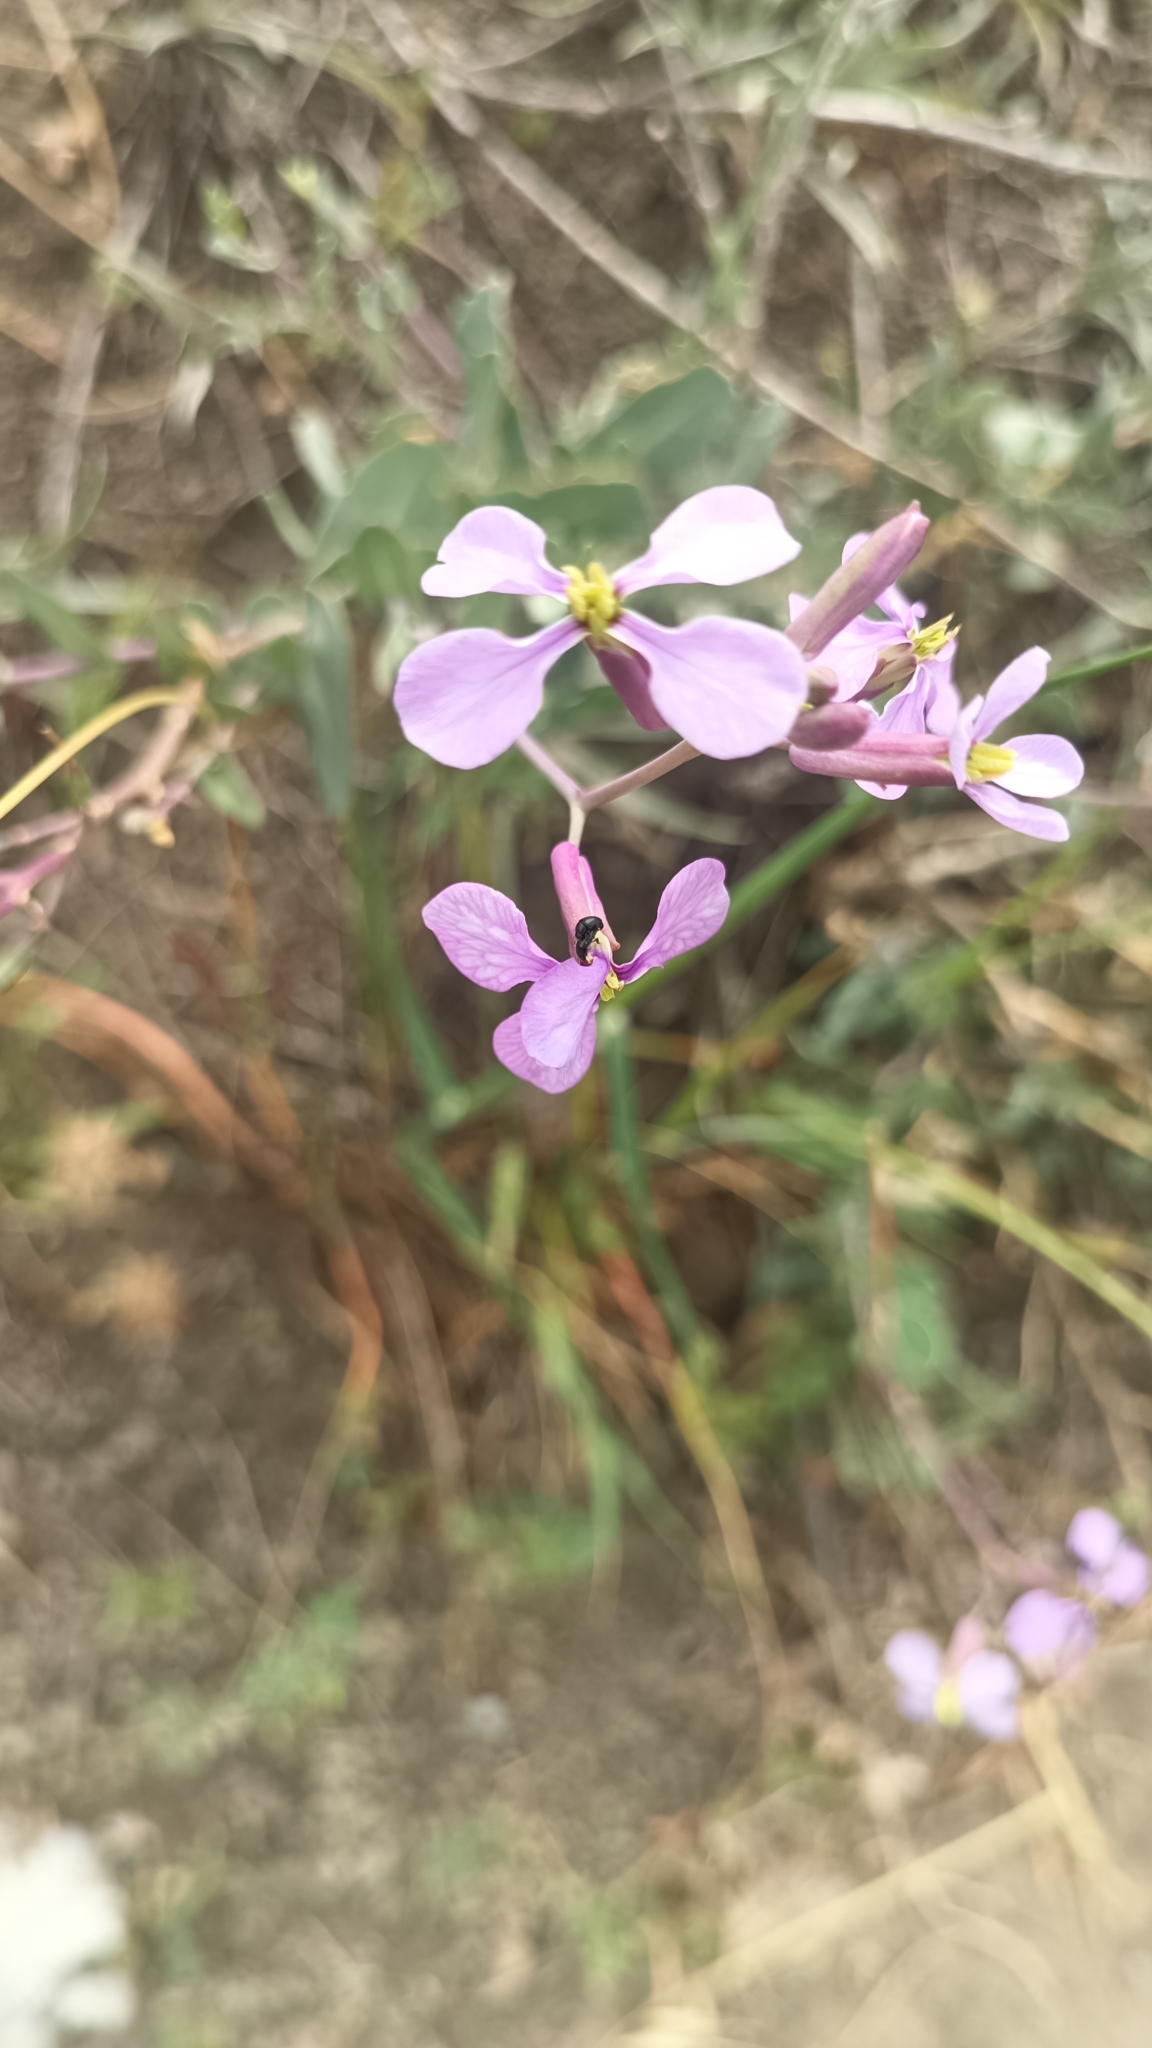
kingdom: Plantae
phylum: Tracheophyta
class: Magnoliopsida
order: Brassicales
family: Brassicaceae
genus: Moricandia
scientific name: Moricandia arvensis
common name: Purple mistress
